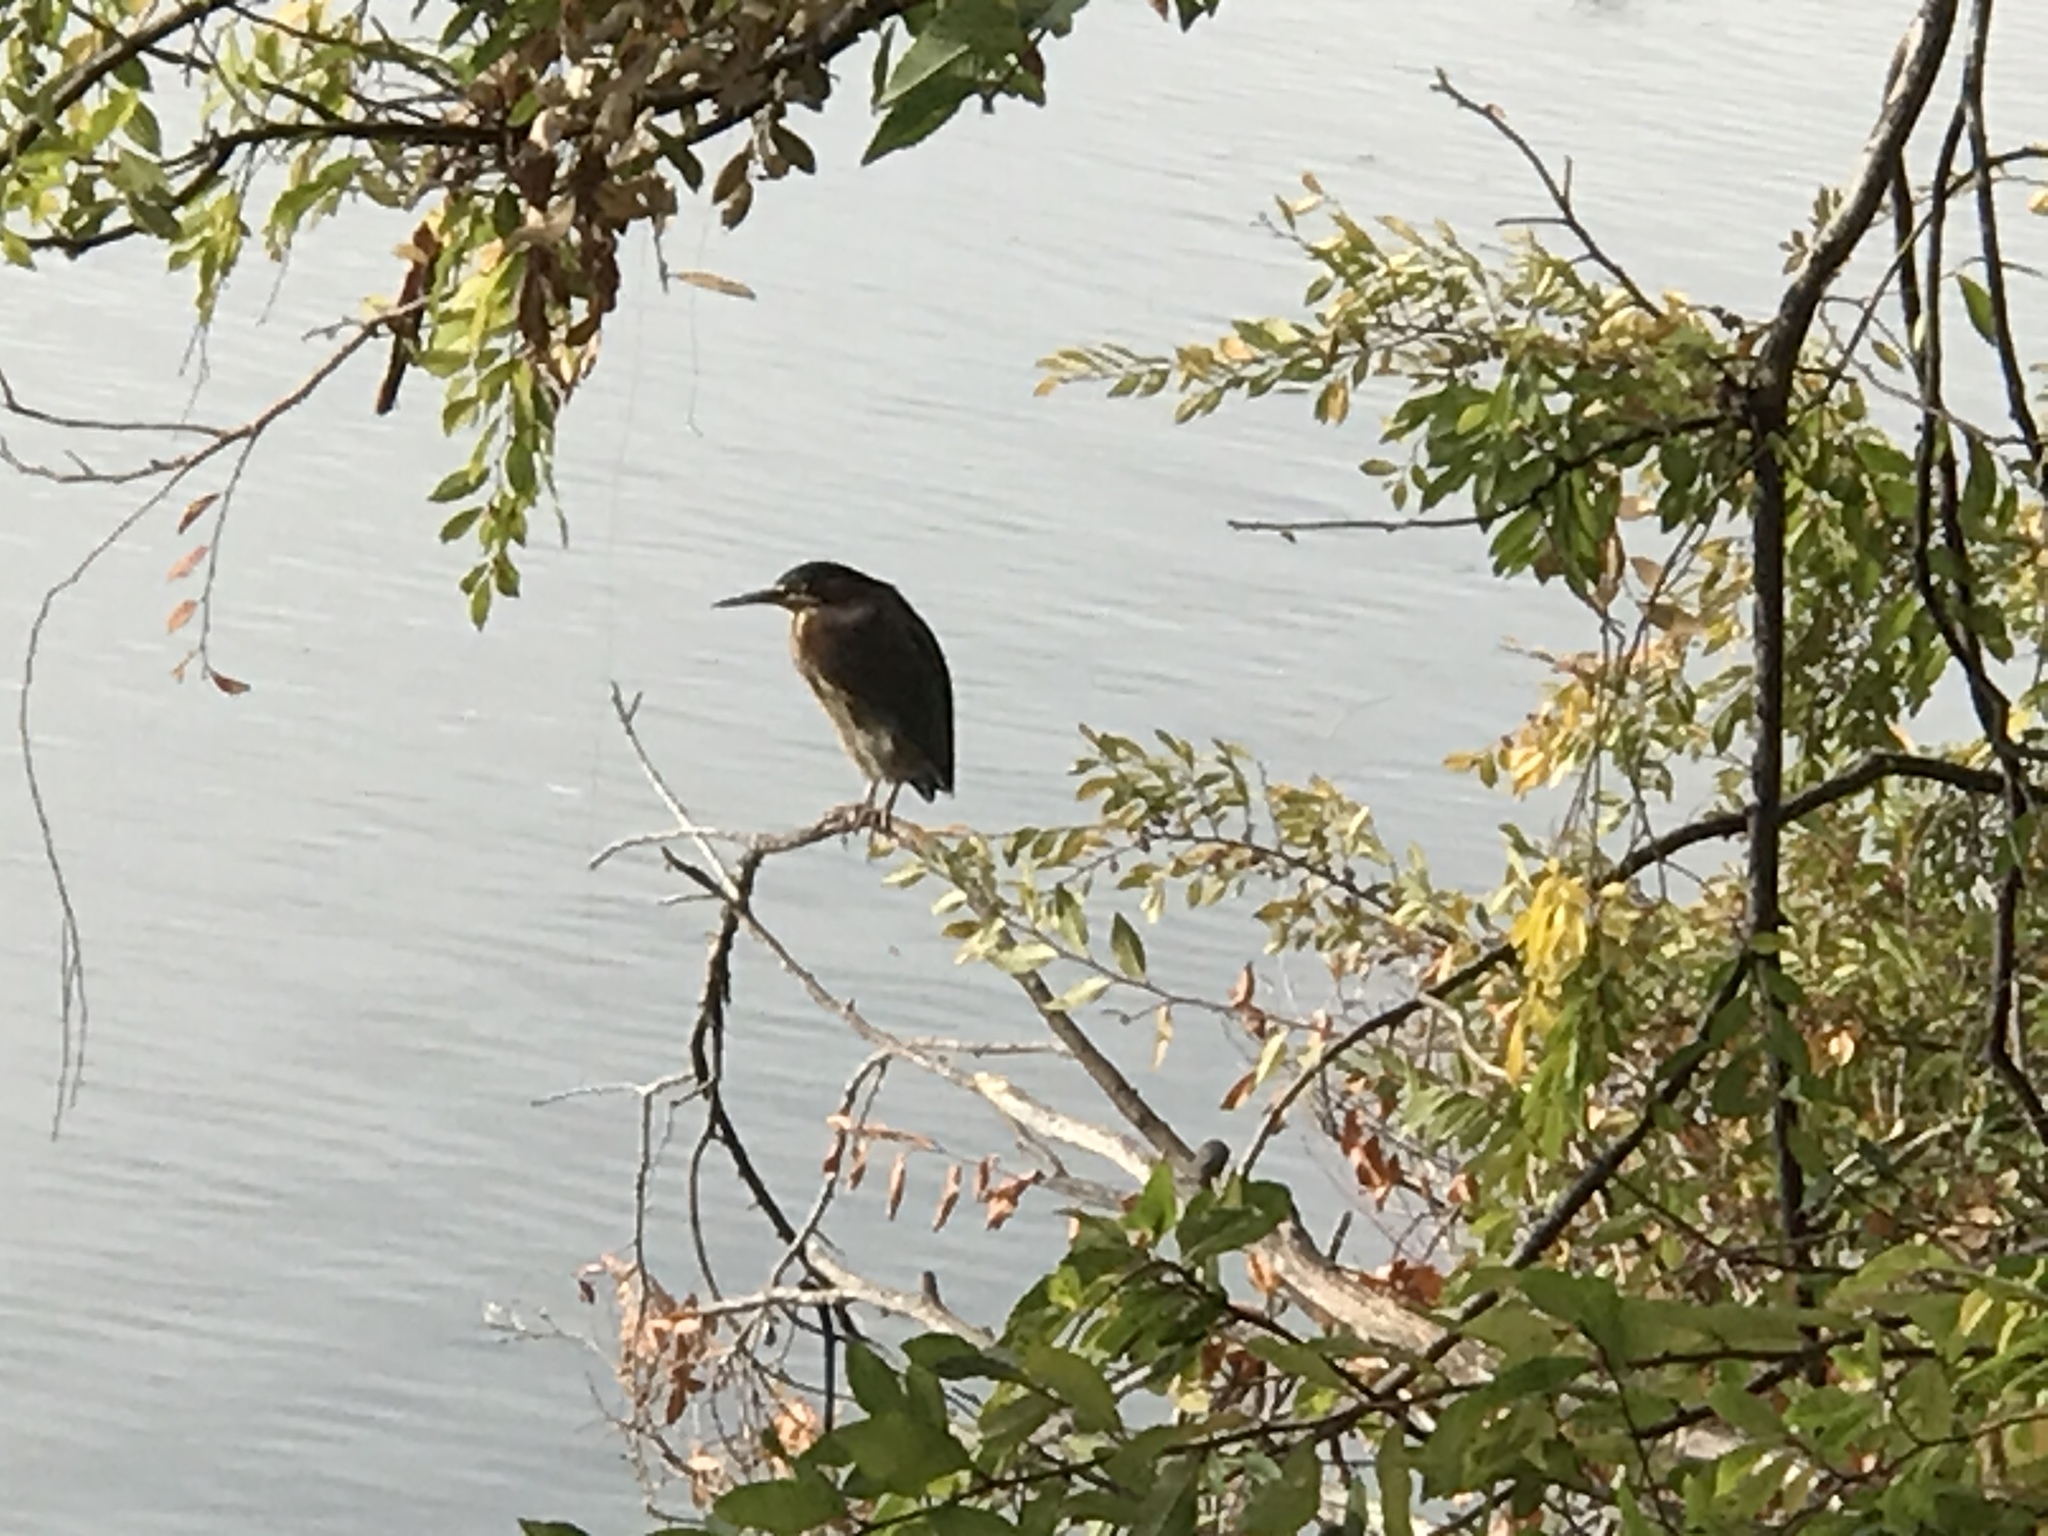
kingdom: Animalia
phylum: Chordata
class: Aves
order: Pelecaniformes
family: Ardeidae
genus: Nycticorax
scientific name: Nycticorax nycticorax
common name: Black-crowned night heron
